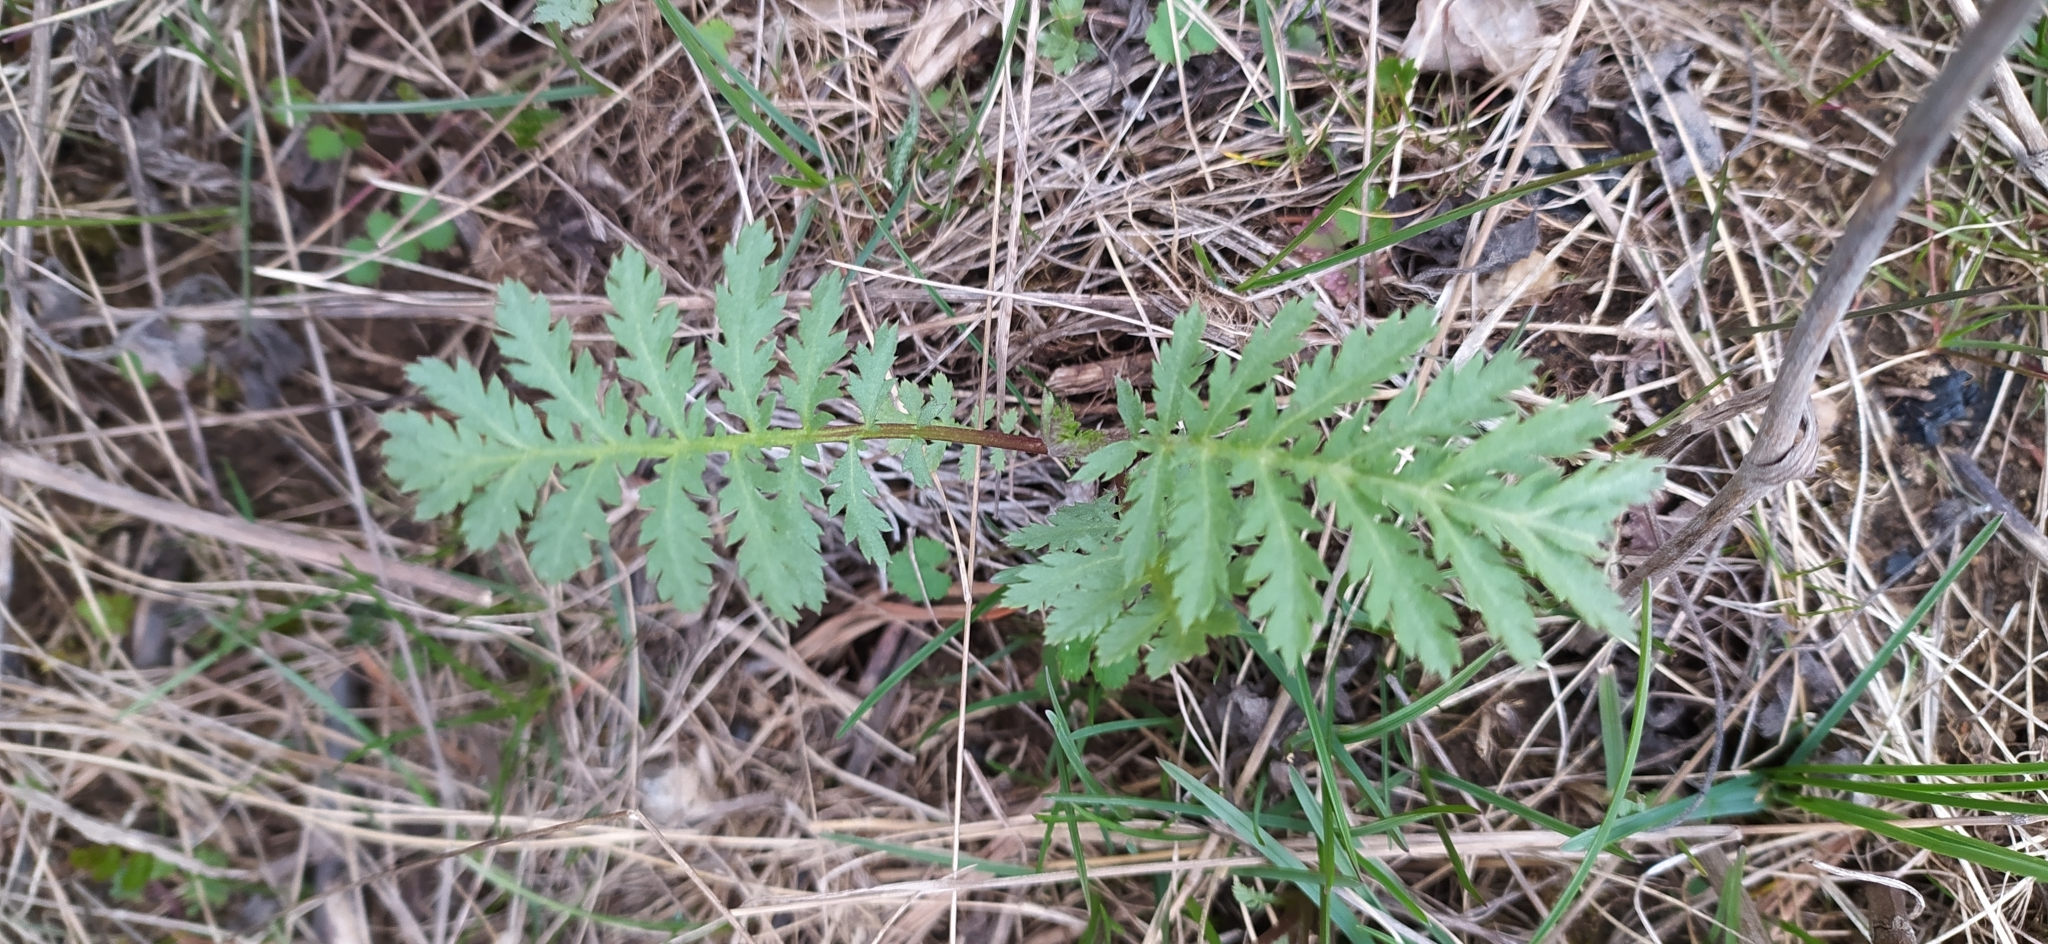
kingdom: Plantae
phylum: Tracheophyta
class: Magnoliopsida
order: Asterales
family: Asteraceae
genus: Tanacetum
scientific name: Tanacetum vulgare
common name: Common tansy
